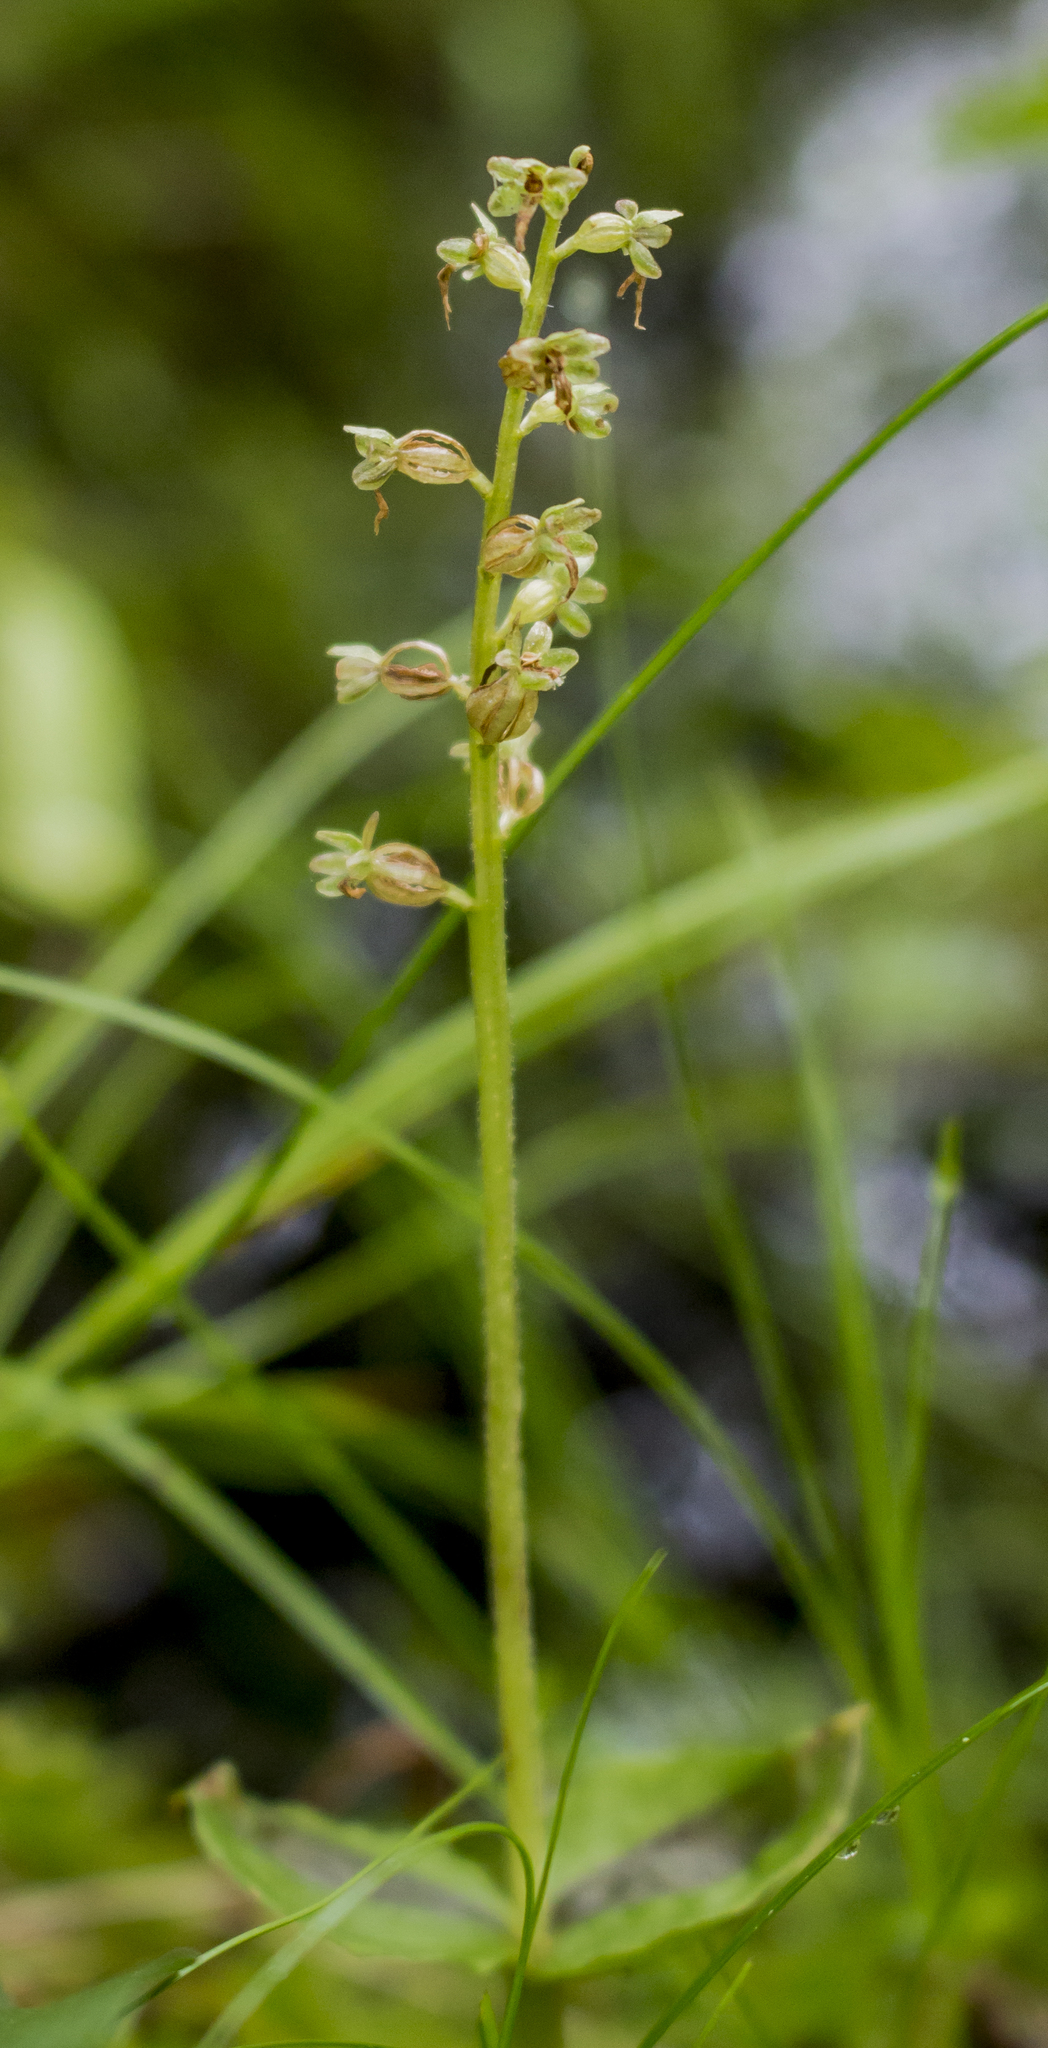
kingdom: Plantae
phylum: Tracheophyta
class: Liliopsida
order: Asparagales
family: Orchidaceae
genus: Neottia
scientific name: Neottia cordata
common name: Lesser twayblade
